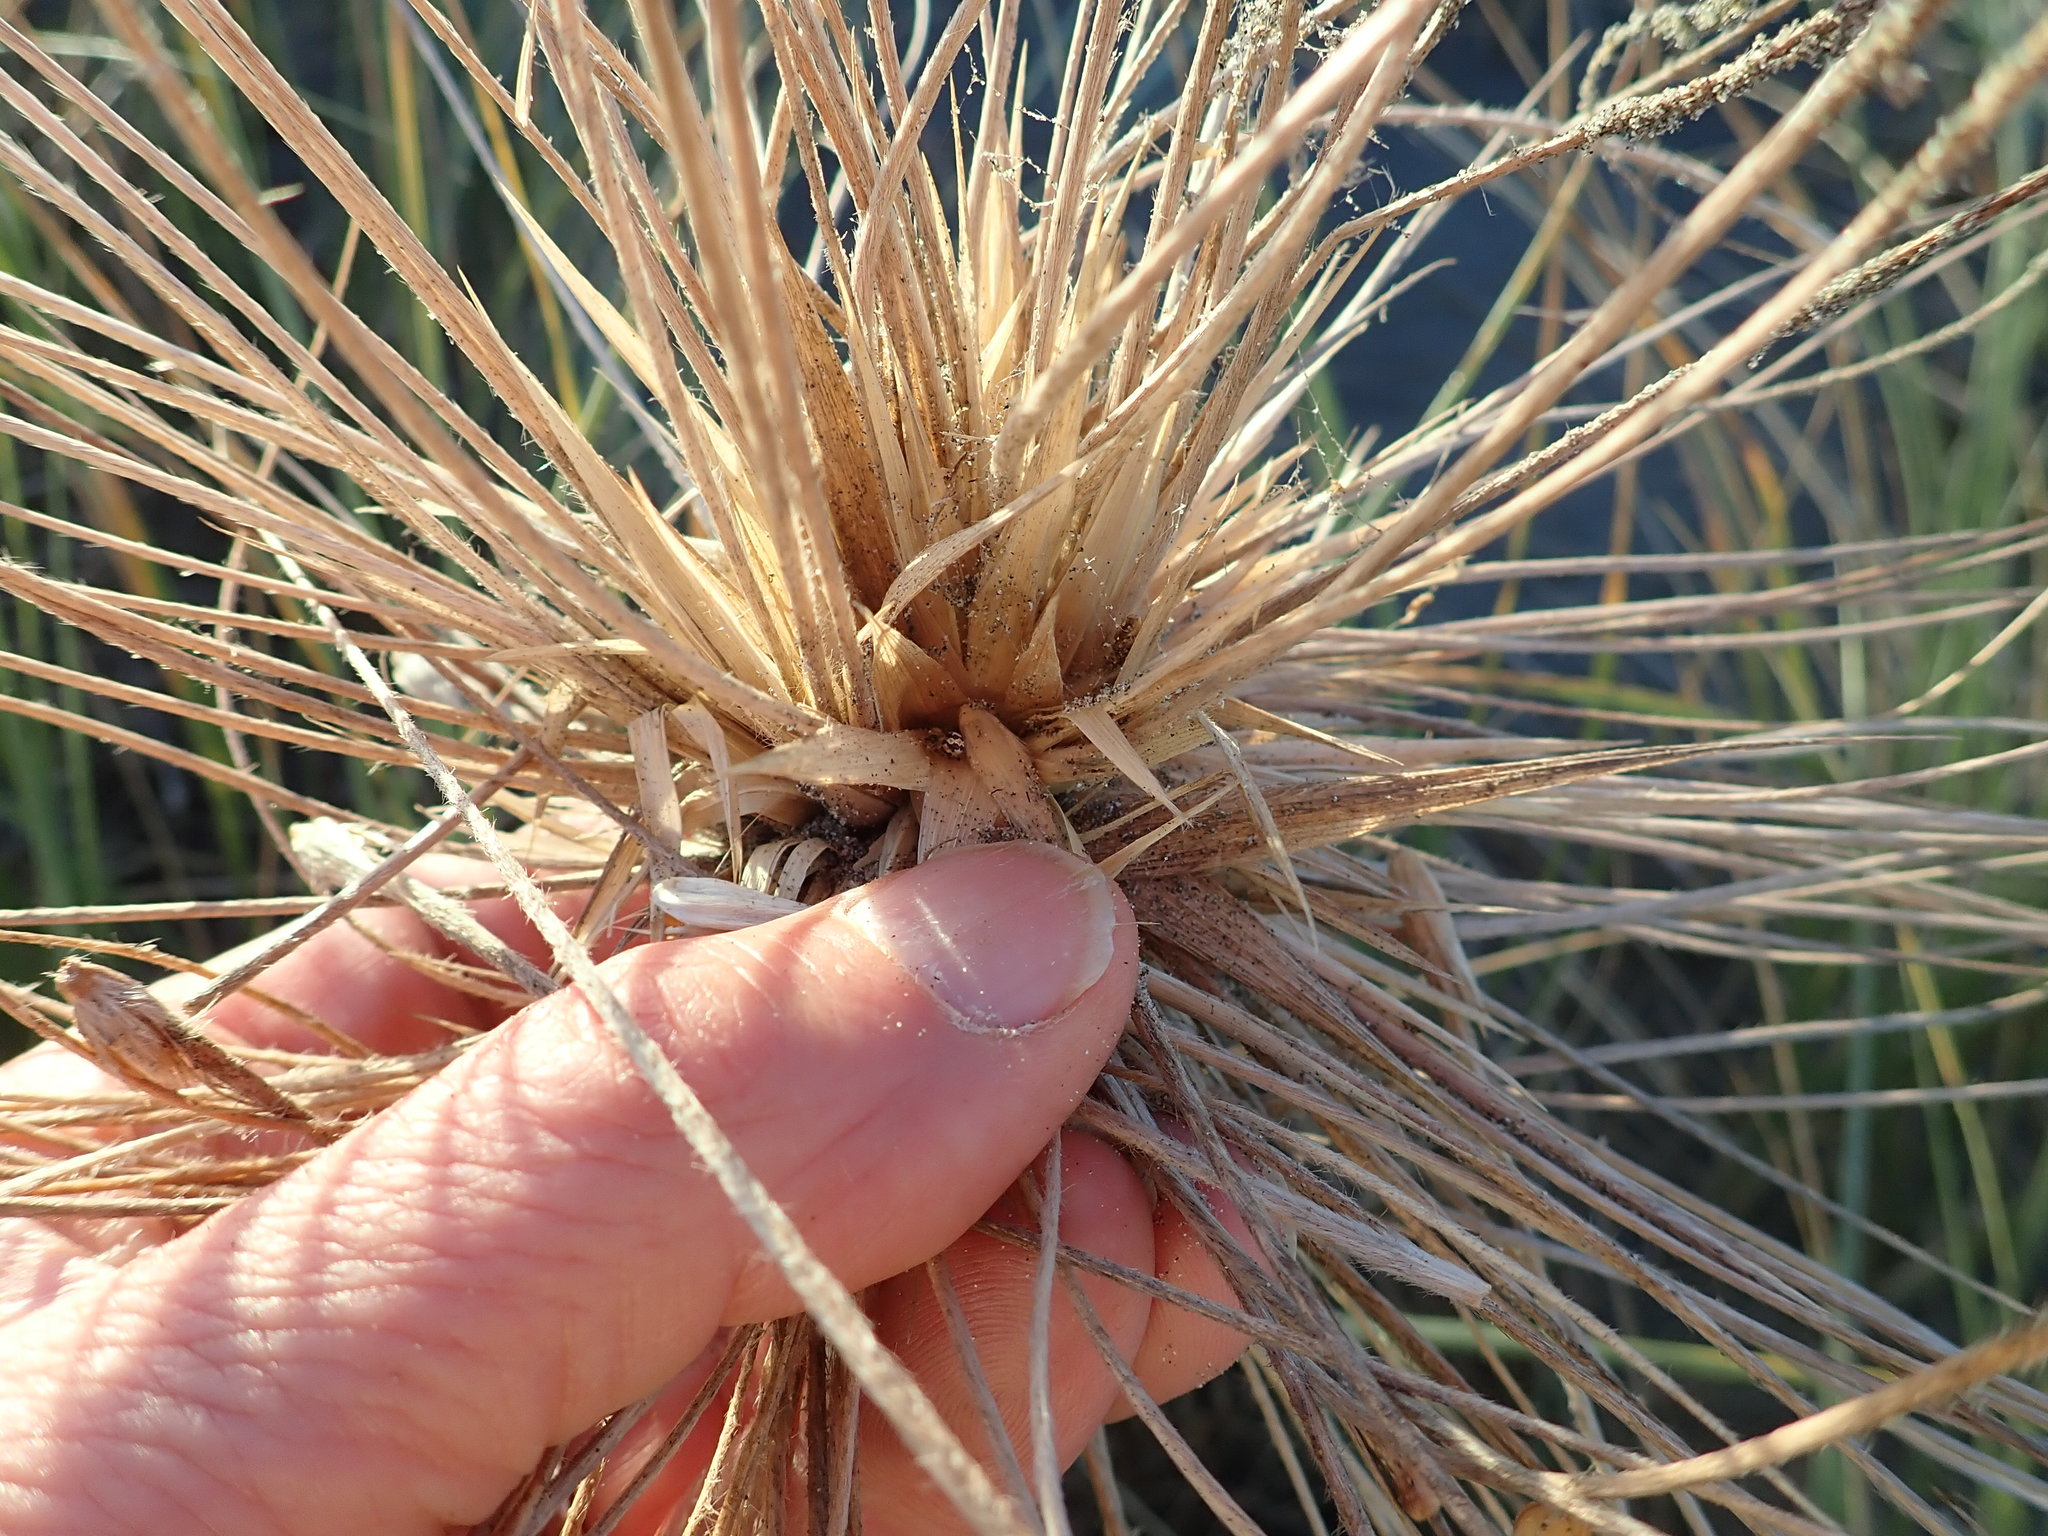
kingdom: Animalia
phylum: Arthropoda
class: Arachnida
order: Araneae
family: Theridiidae
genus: Latrodectus
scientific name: Latrodectus katipo
